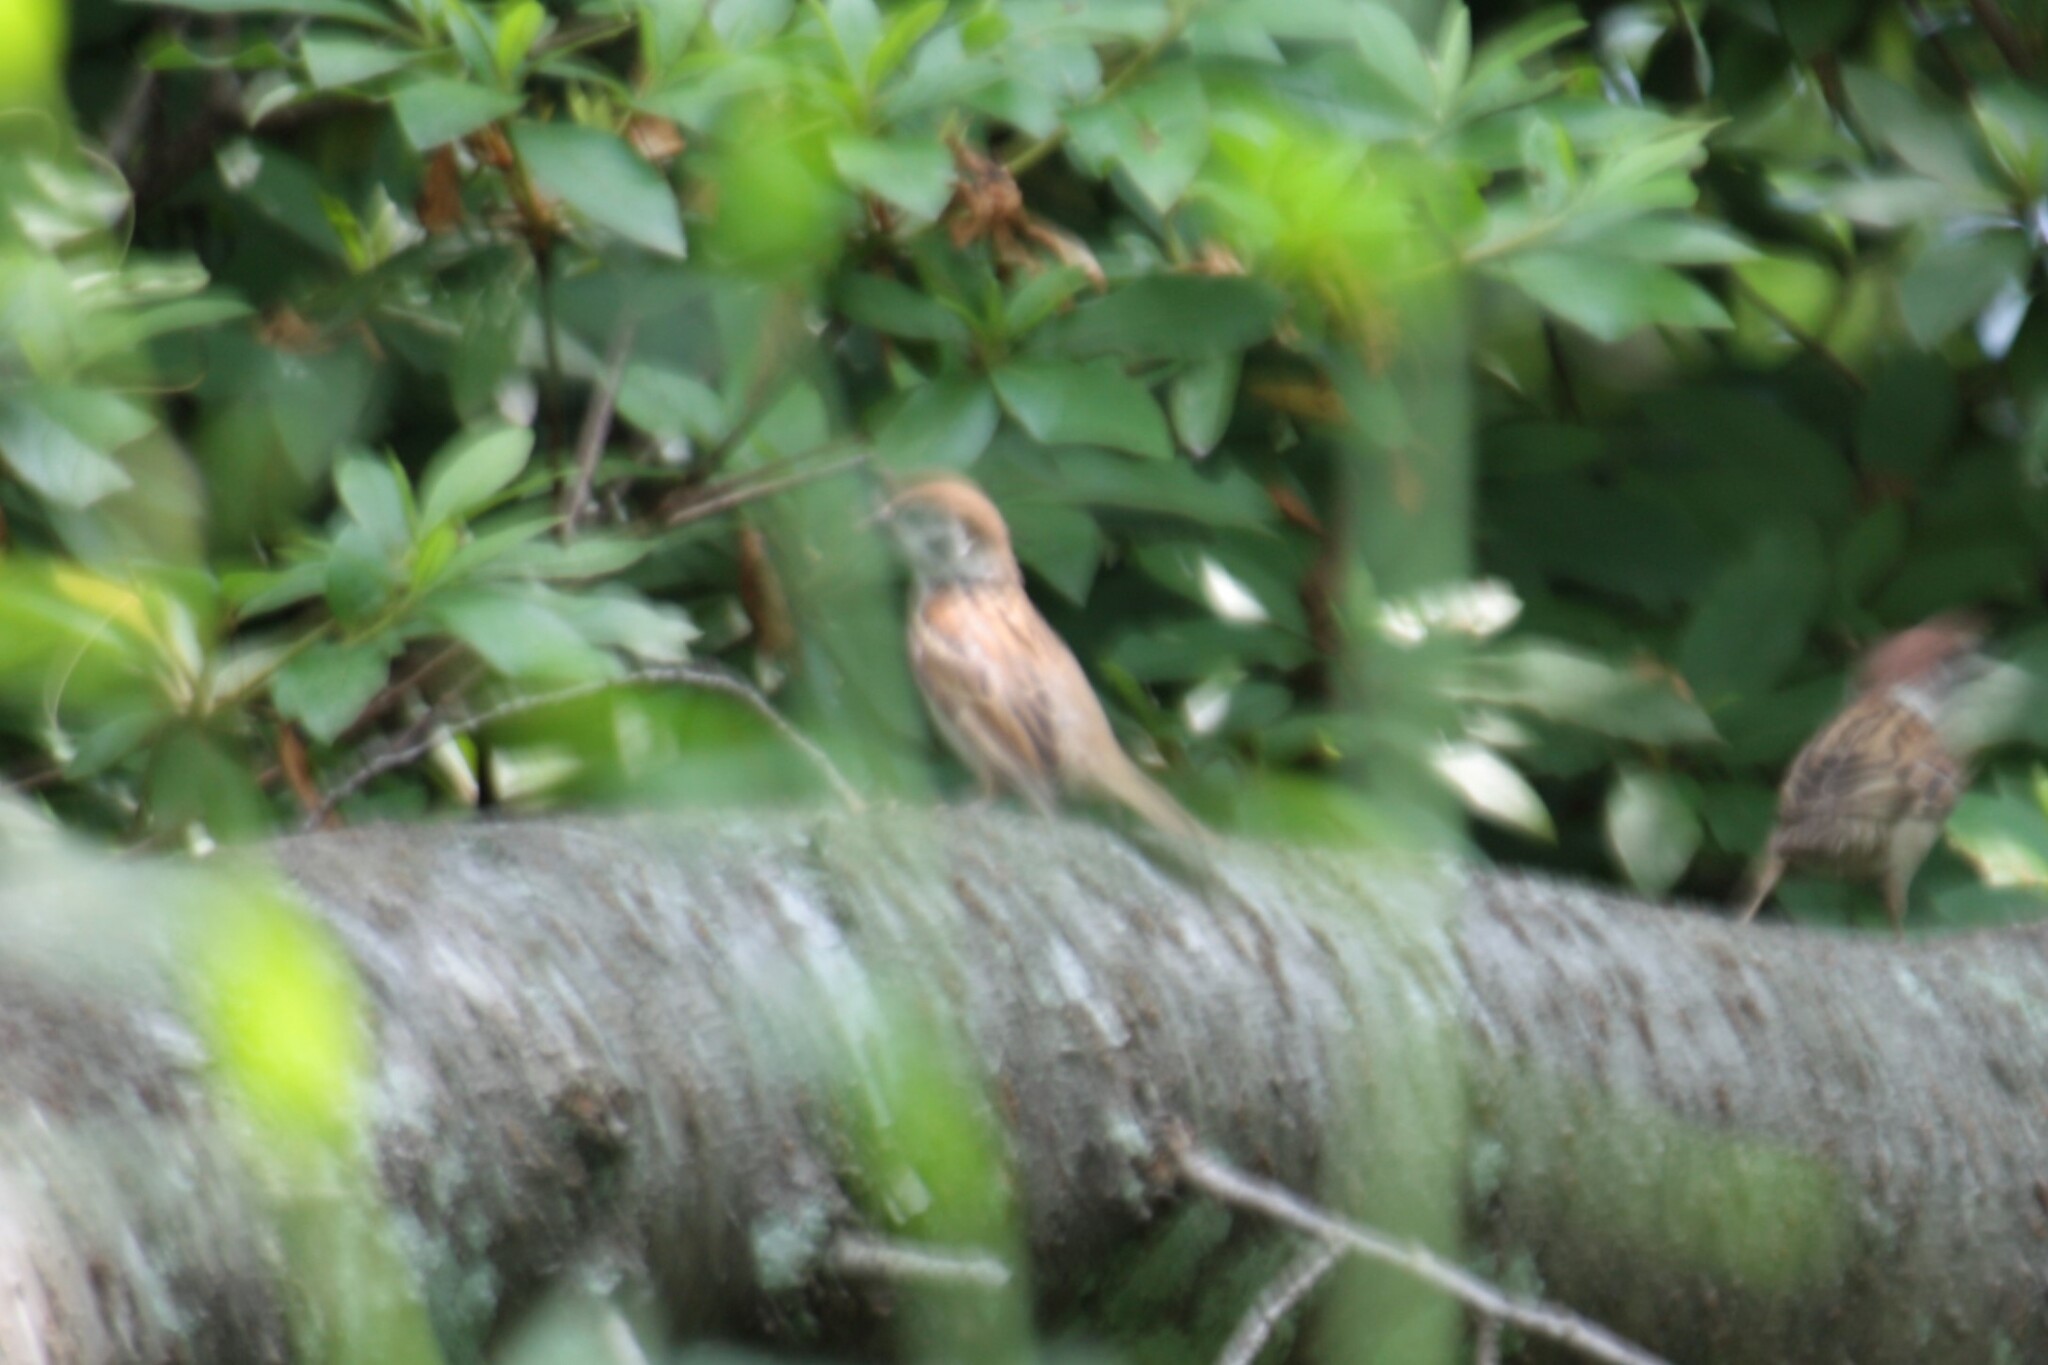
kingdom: Animalia
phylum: Chordata
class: Aves
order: Passeriformes
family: Passeridae
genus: Passer
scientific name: Passer montanus
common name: Eurasian tree sparrow
